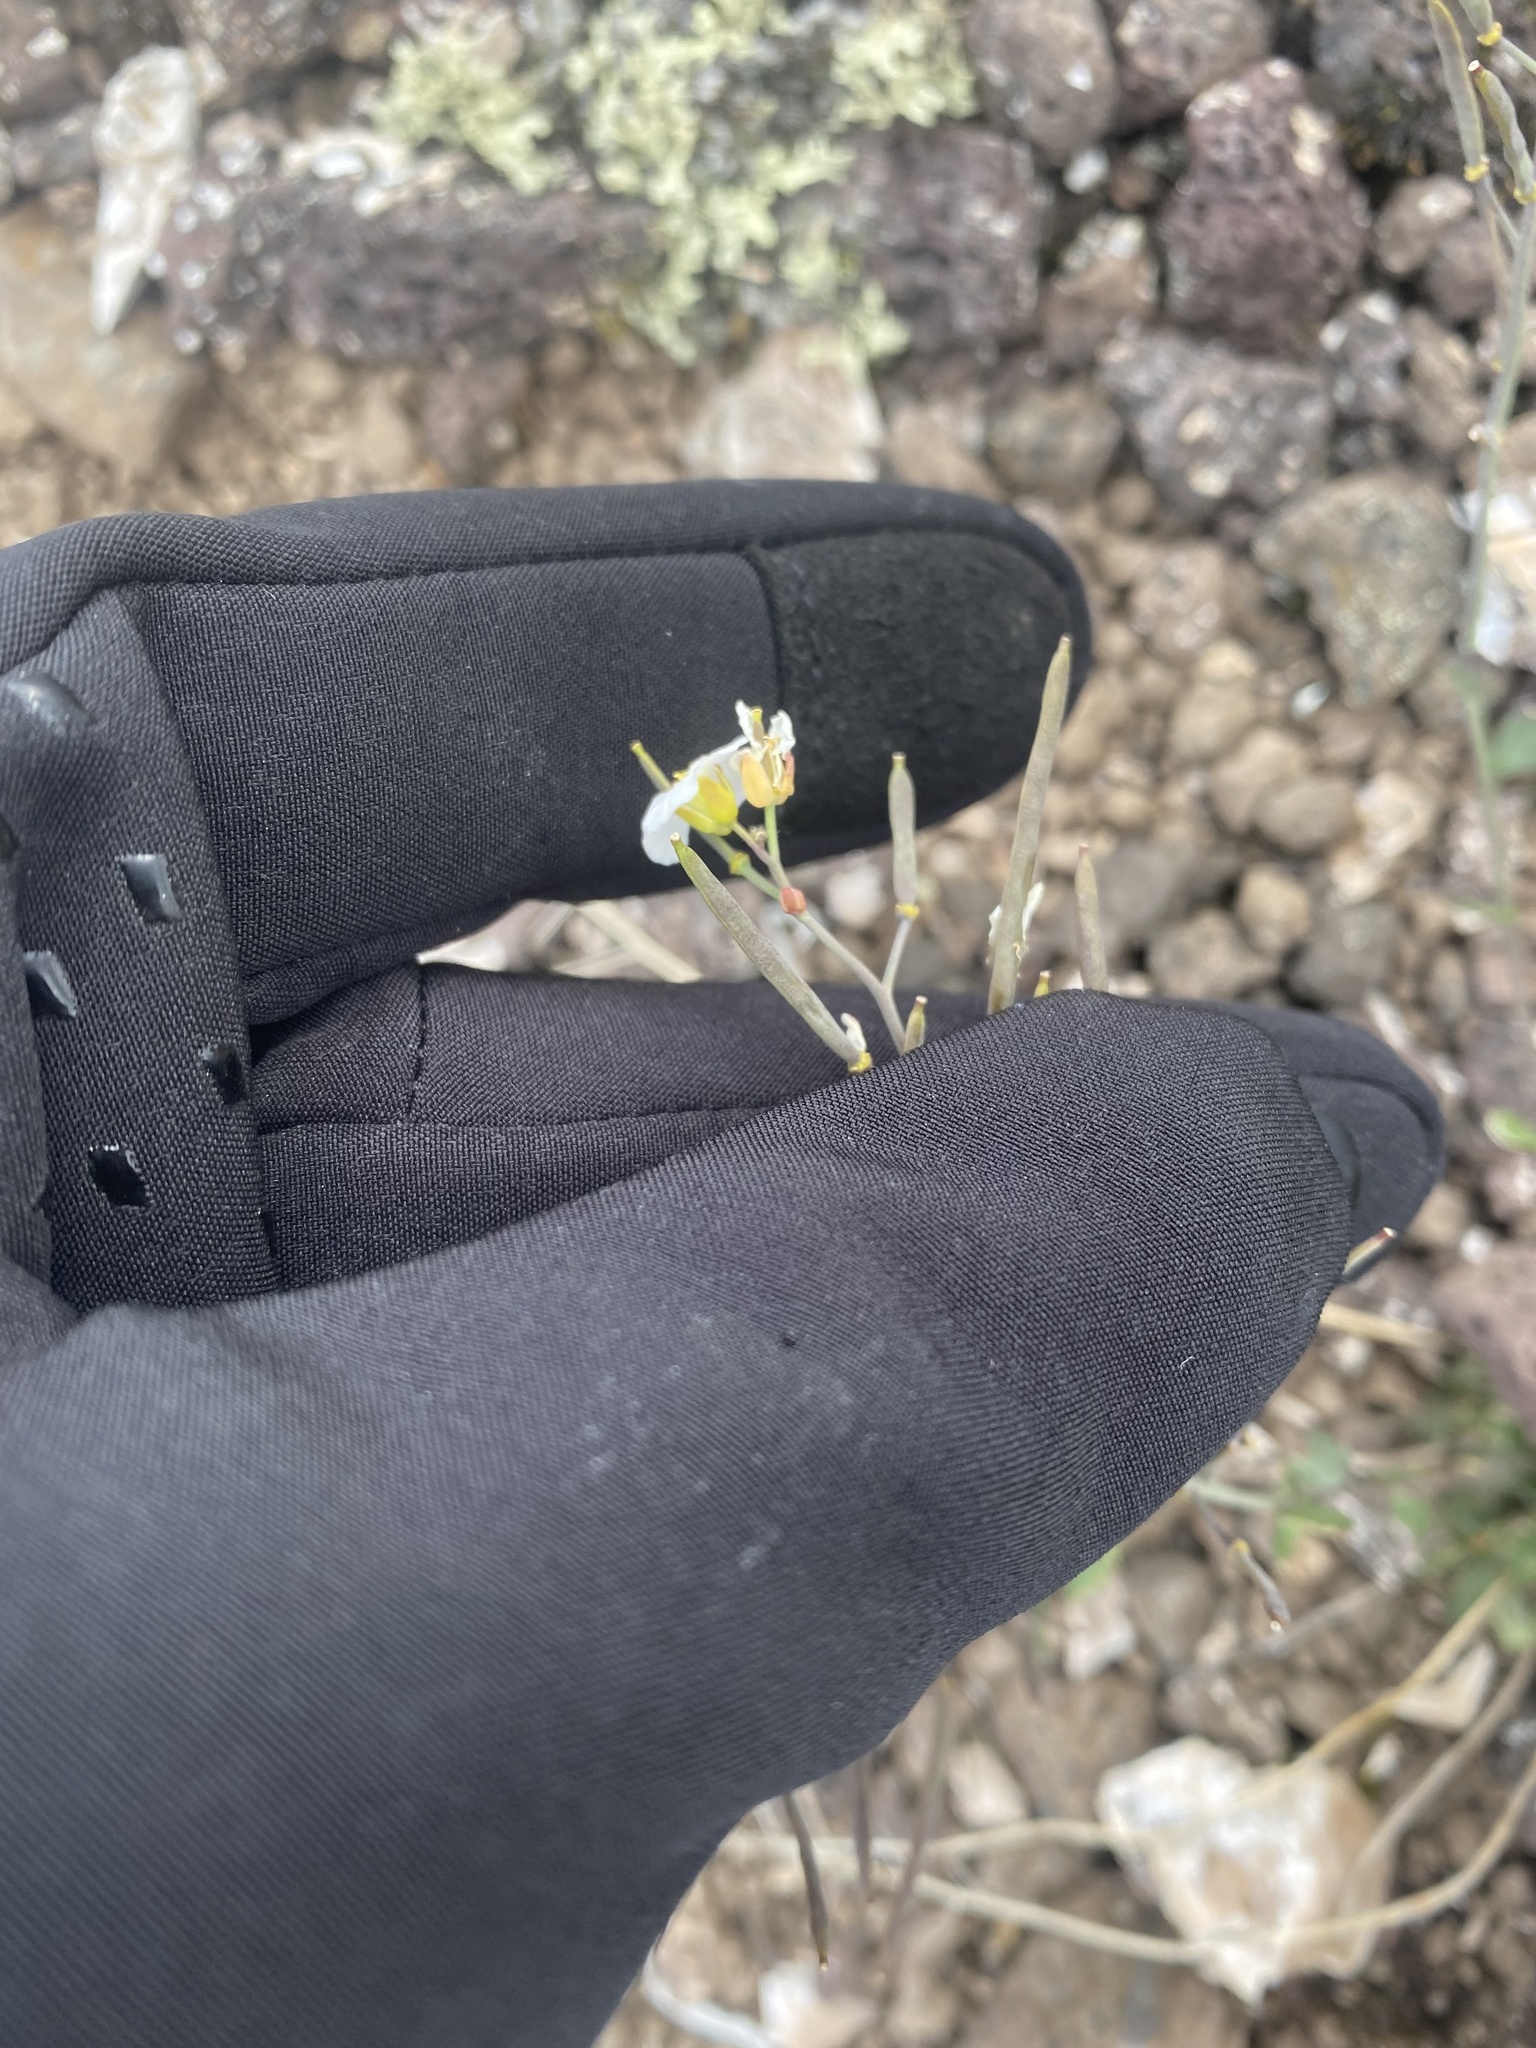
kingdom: Plantae
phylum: Tracheophyta
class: Magnoliopsida
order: Brassicales
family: Brassicaceae
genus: Arabidopsis
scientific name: Arabidopsis lyrata
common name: Lyrate rockcress
